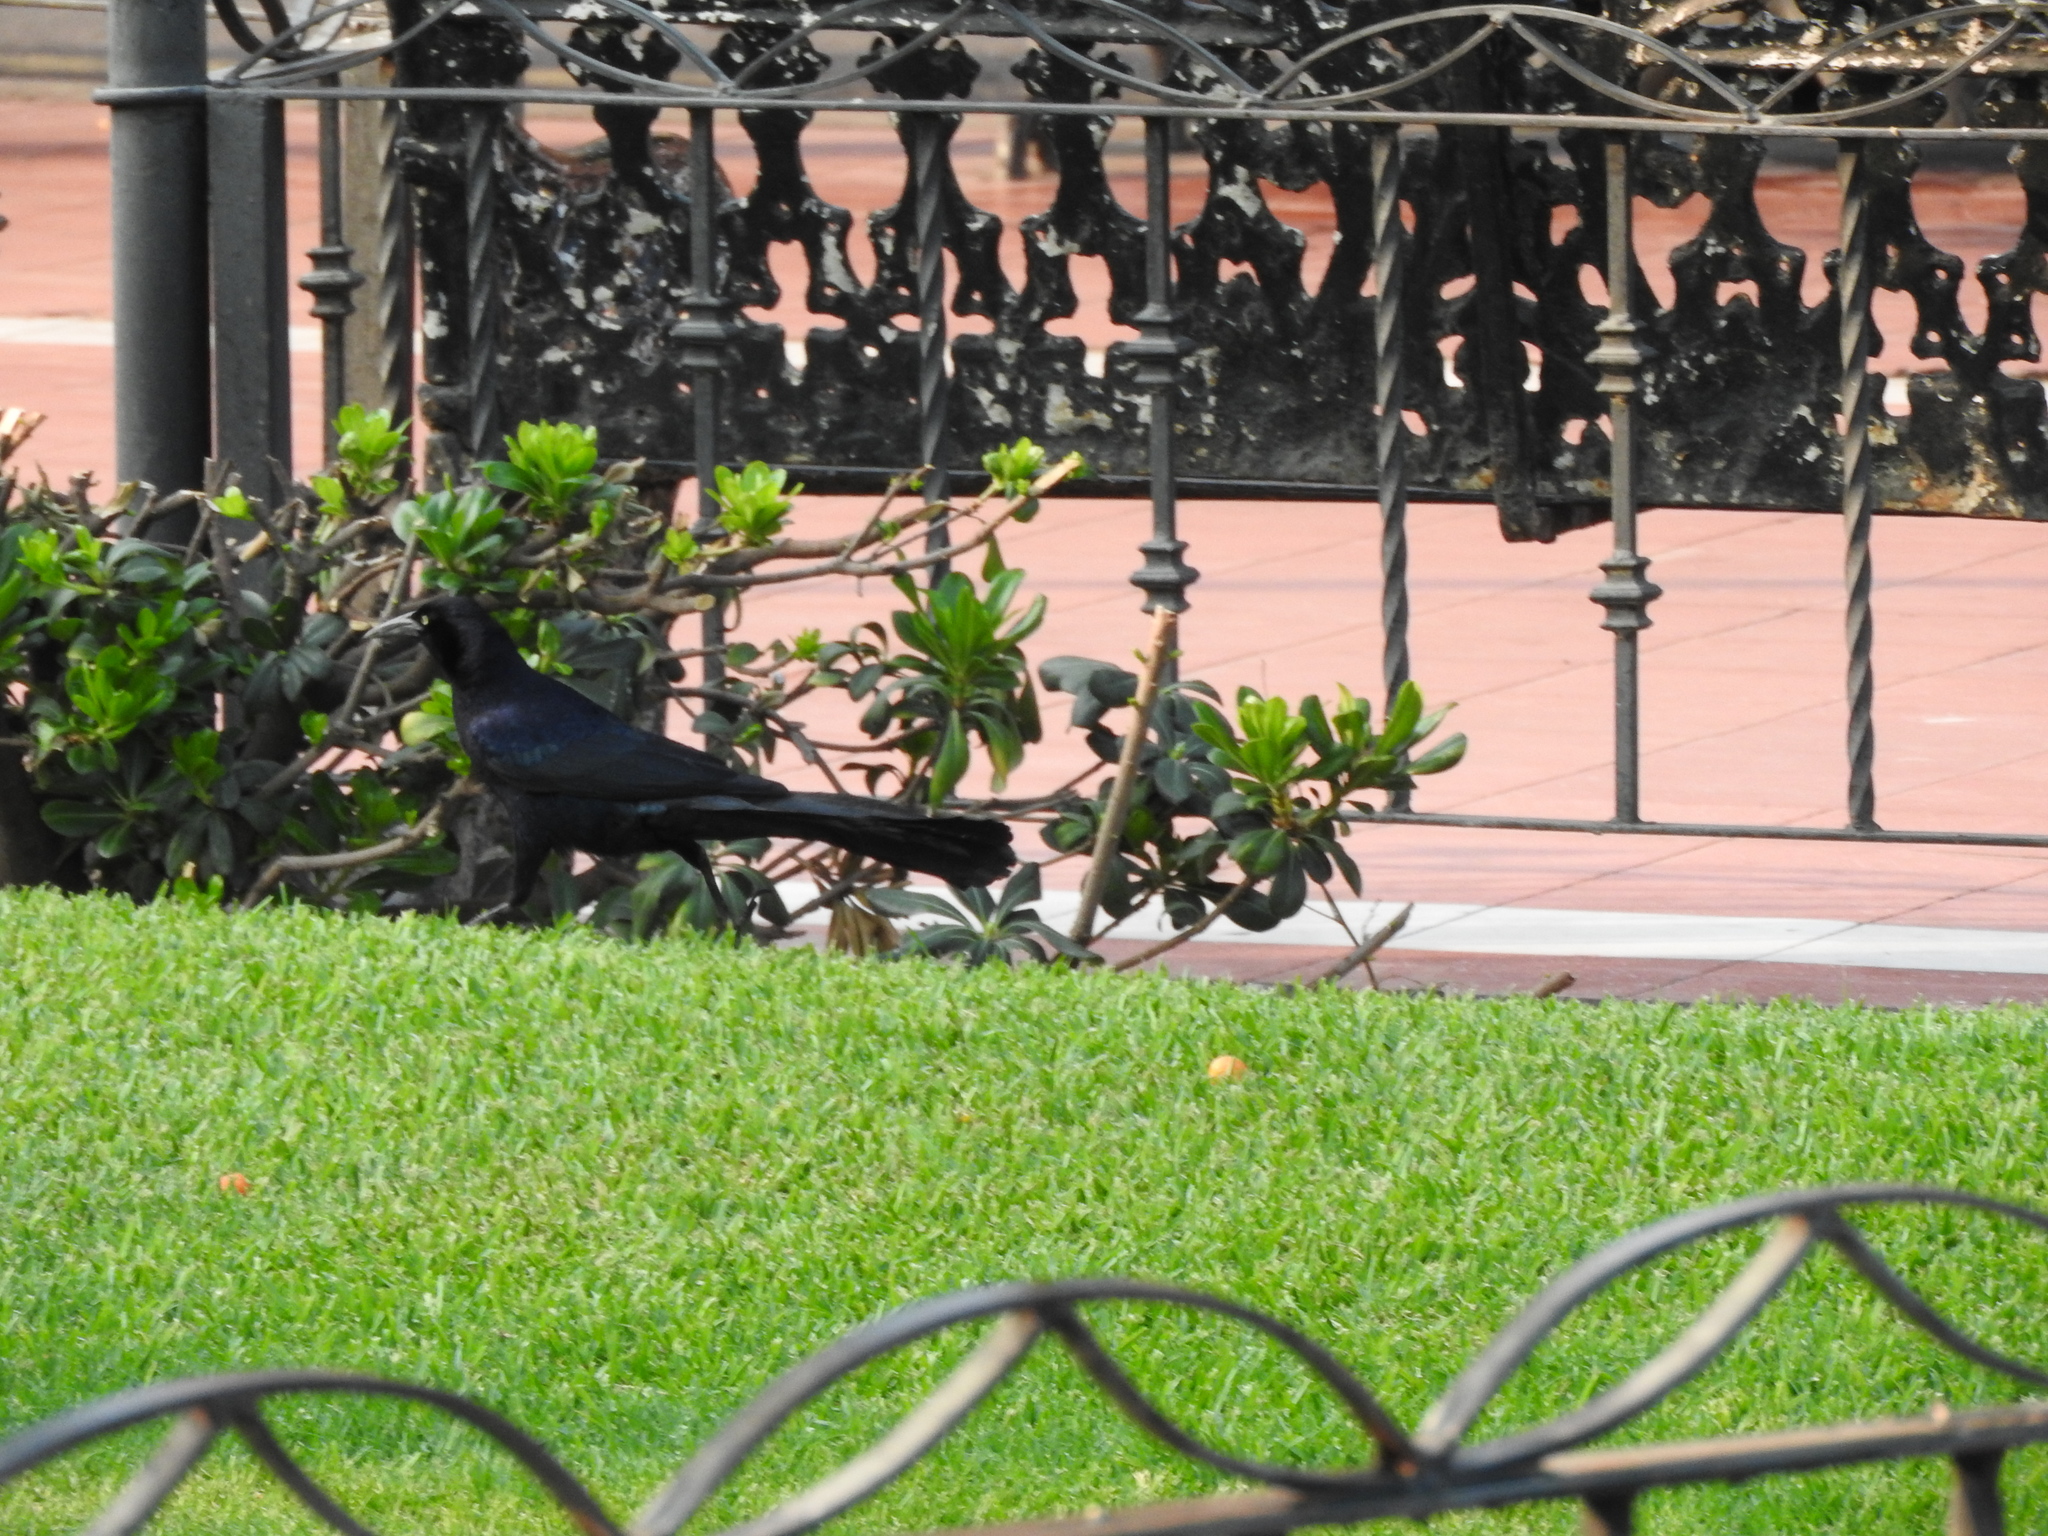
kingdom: Animalia
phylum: Chordata
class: Aves
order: Passeriformes
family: Icteridae
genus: Quiscalus
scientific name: Quiscalus mexicanus
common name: Great-tailed grackle
